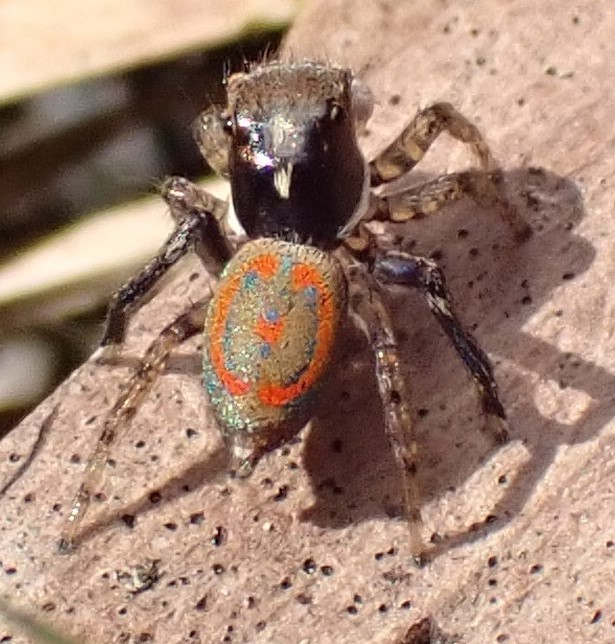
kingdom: Animalia
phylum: Arthropoda
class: Arachnida
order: Araneae
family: Salticidae
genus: Maratus
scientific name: Maratus pavonis
